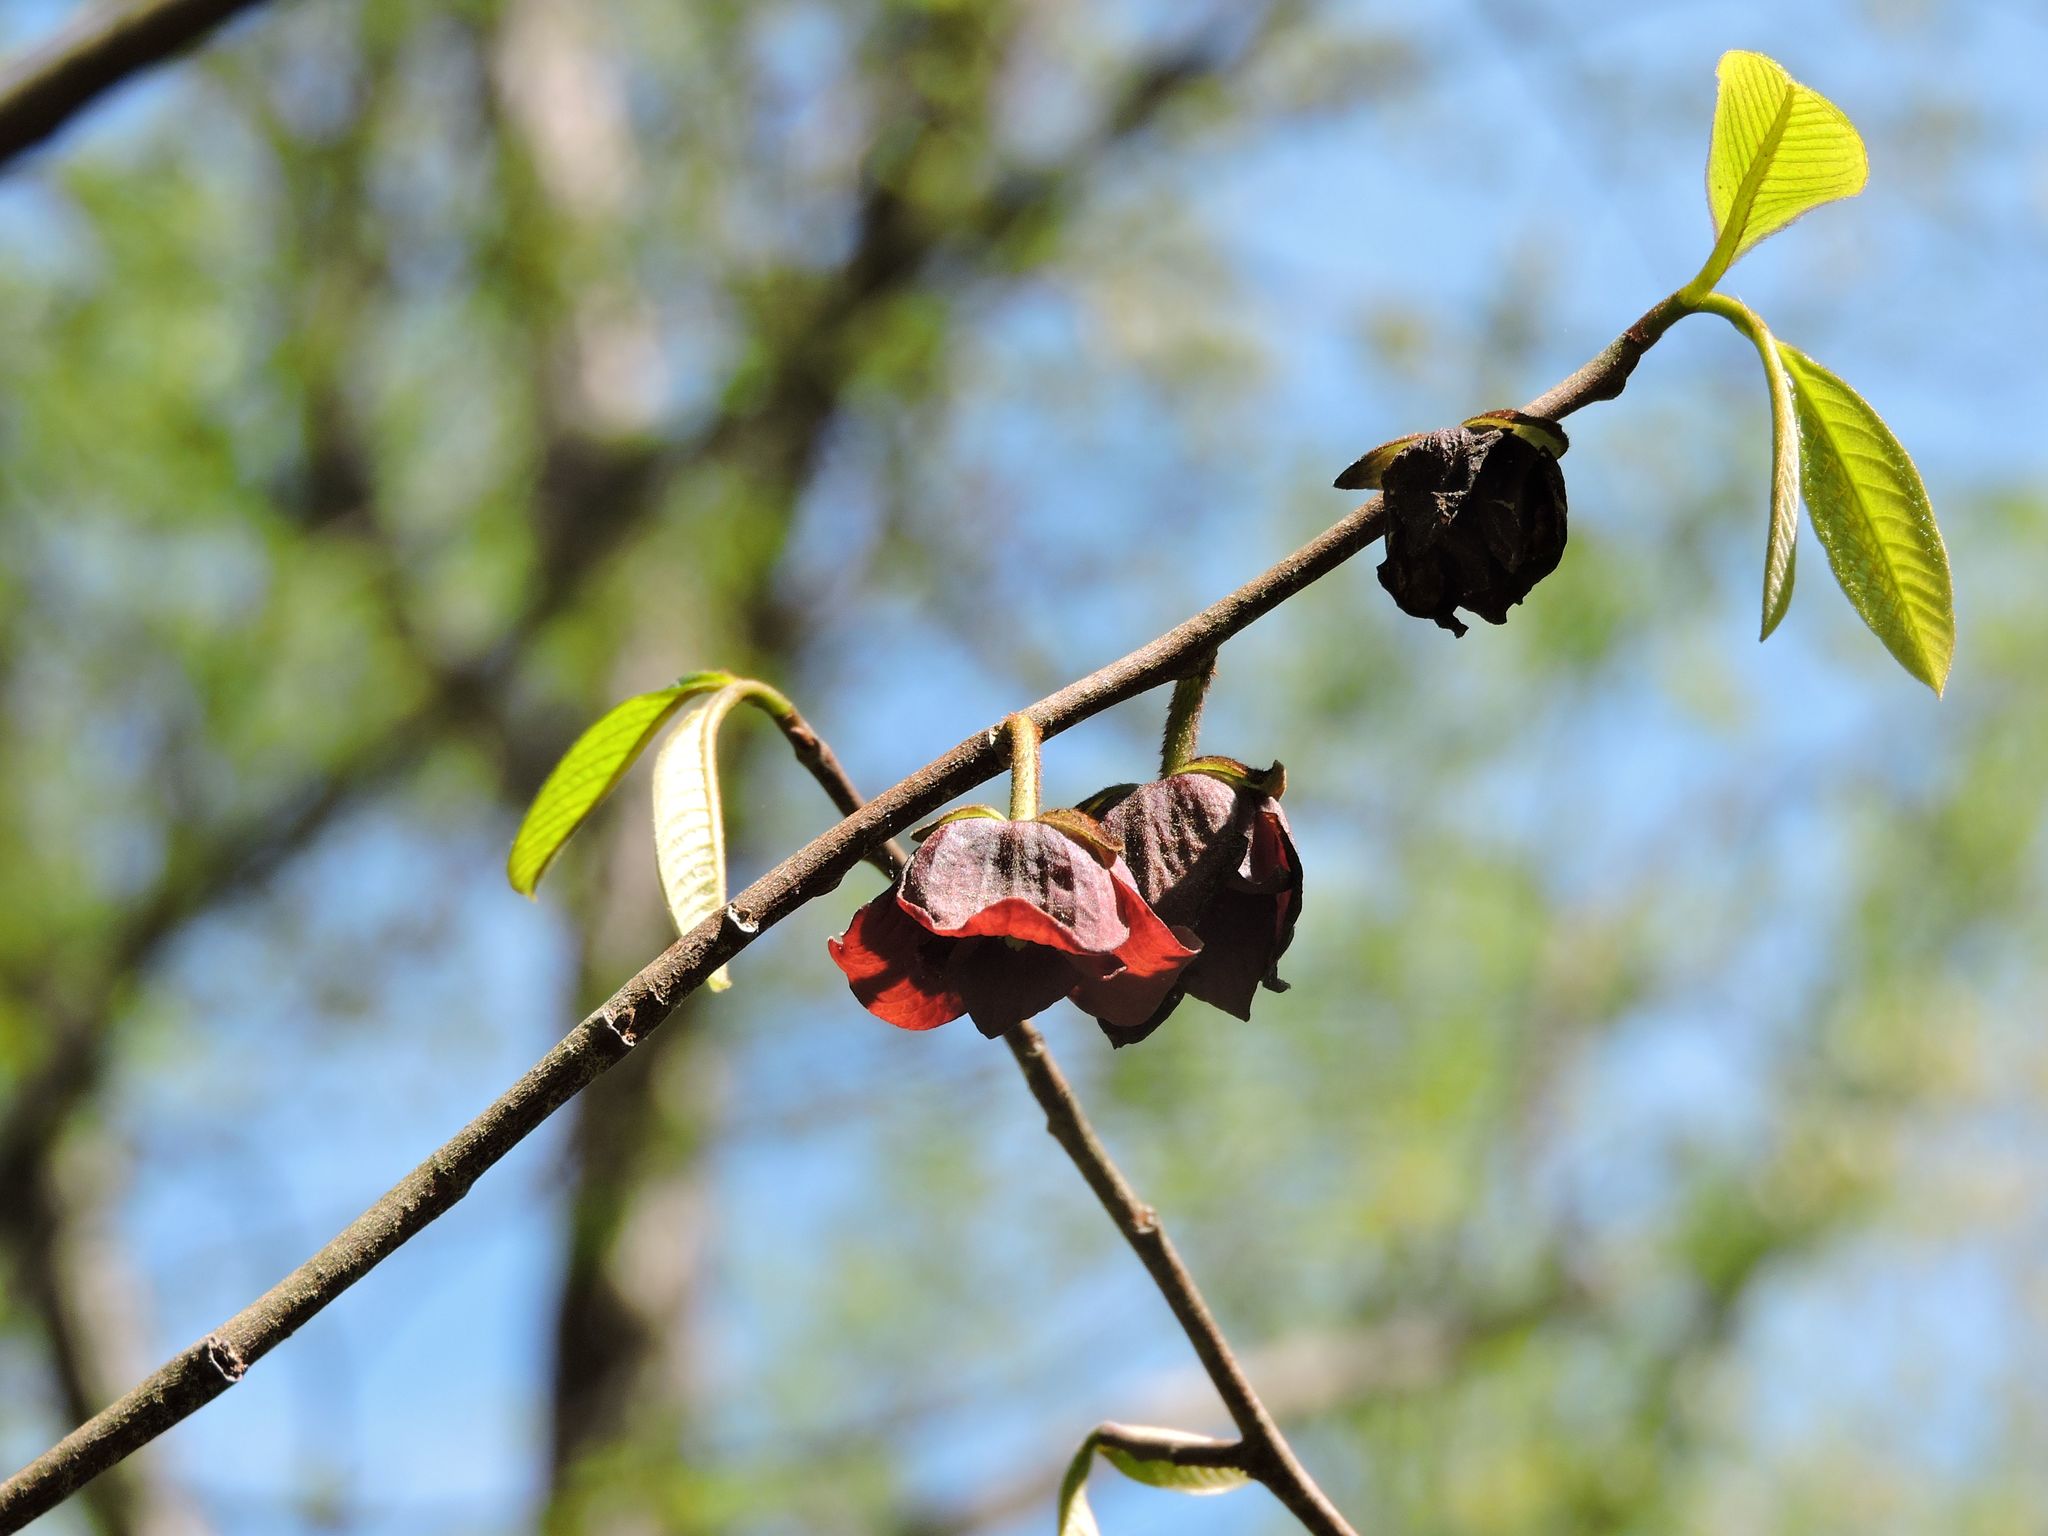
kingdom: Plantae
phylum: Tracheophyta
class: Magnoliopsida
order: Magnoliales
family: Annonaceae
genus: Asimina
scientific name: Asimina triloba
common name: Dog-banana
